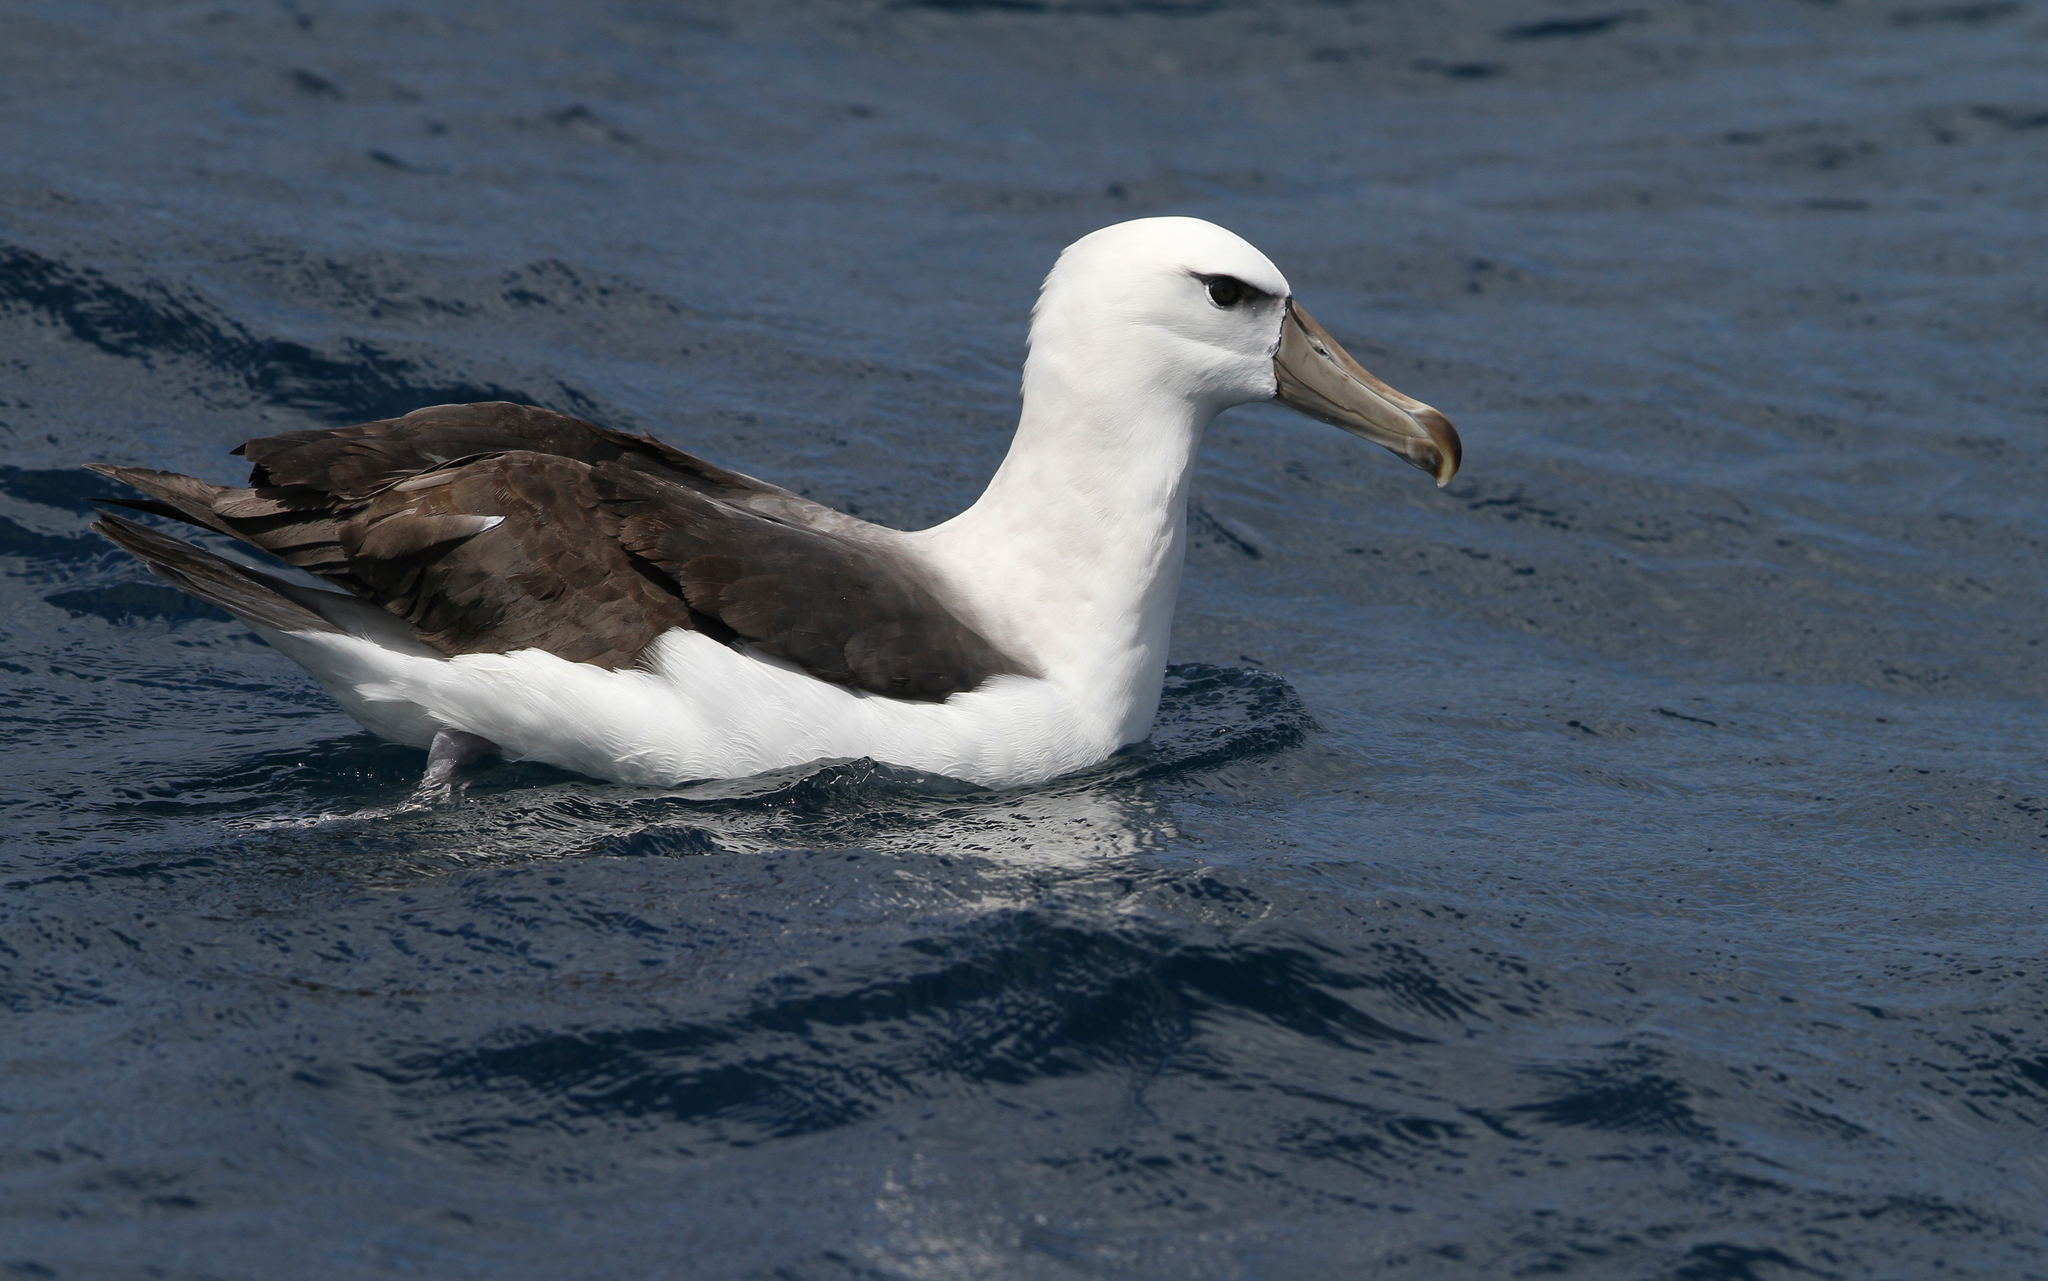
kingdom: Animalia
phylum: Chordata
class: Aves
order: Procellariiformes
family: Diomedeidae
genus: Thalassarche
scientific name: Thalassarche cauta
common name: Shy albatross
